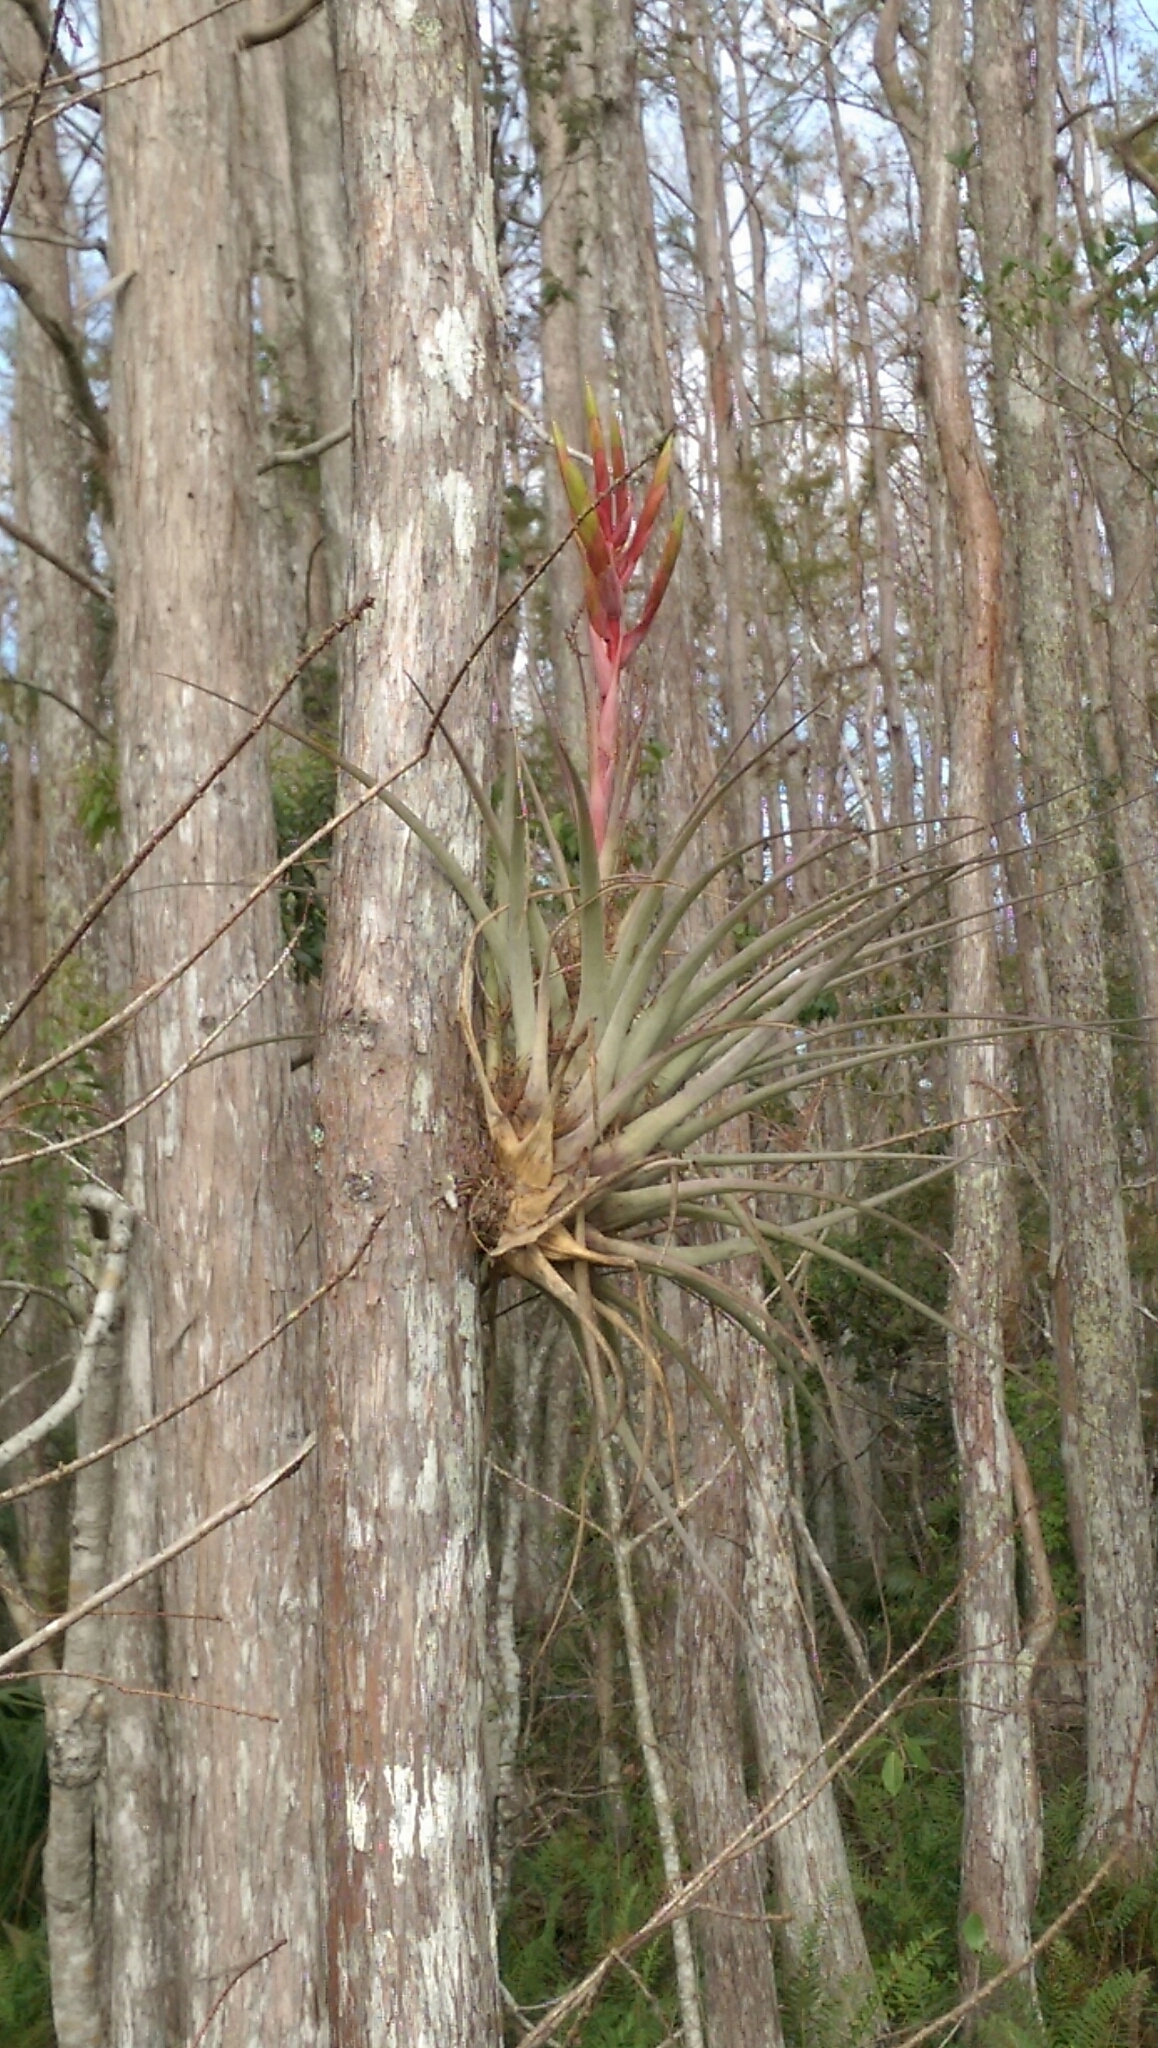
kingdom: Plantae
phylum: Tracheophyta
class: Liliopsida
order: Poales
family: Bromeliaceae
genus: Tillandsia
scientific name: Tillandsia fasciculata
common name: Giant airplant
